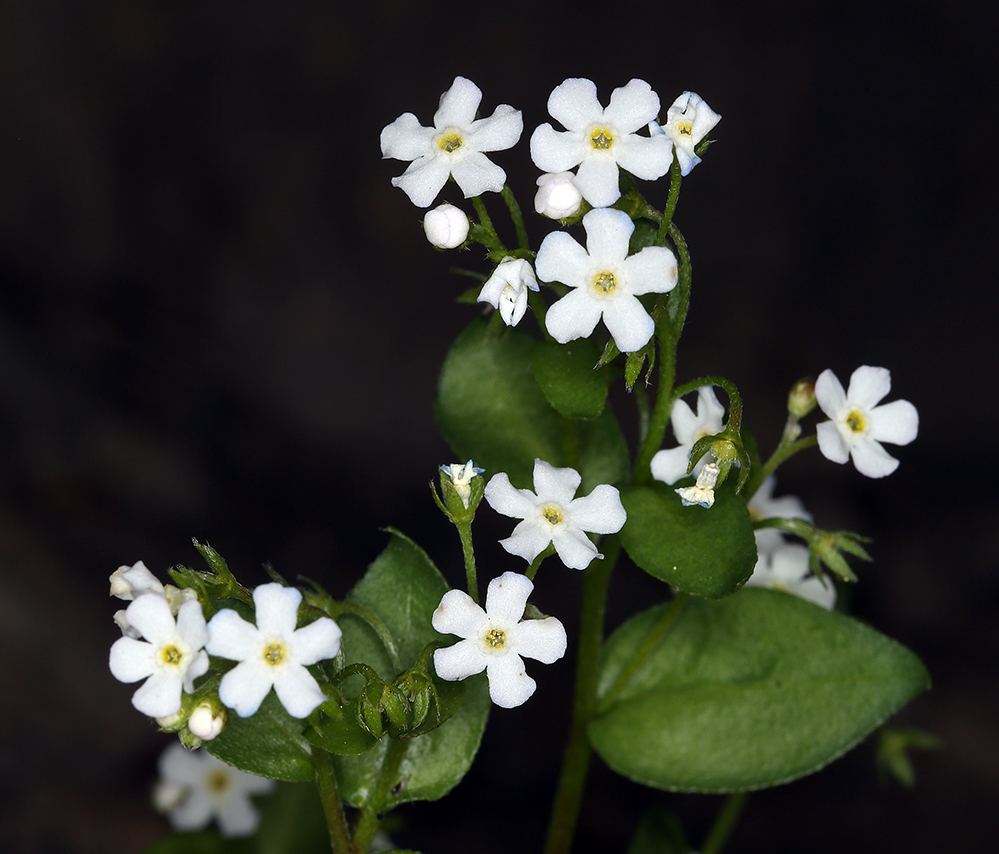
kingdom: Plantae
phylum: Tracheophyta
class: Magnoliopsida
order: Boraginales
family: Boraginaceae
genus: Hackelia
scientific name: Hackelia sharsmithii
